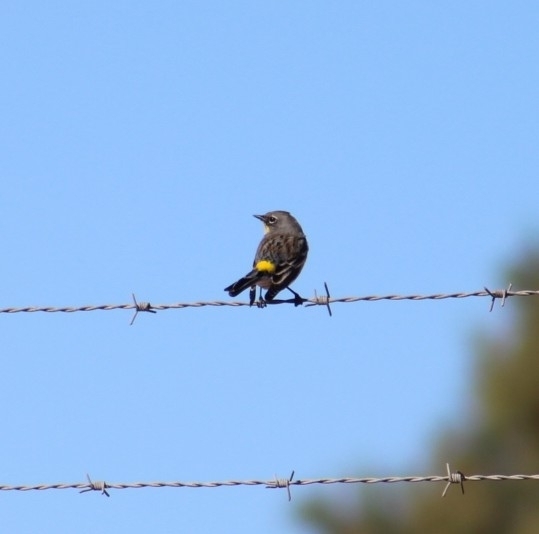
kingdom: Animalia
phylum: Chordata
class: Aves
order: Passeriformes
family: Parulidae
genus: Setophaga
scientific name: Setophaga coronata
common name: Myrtle warbler
